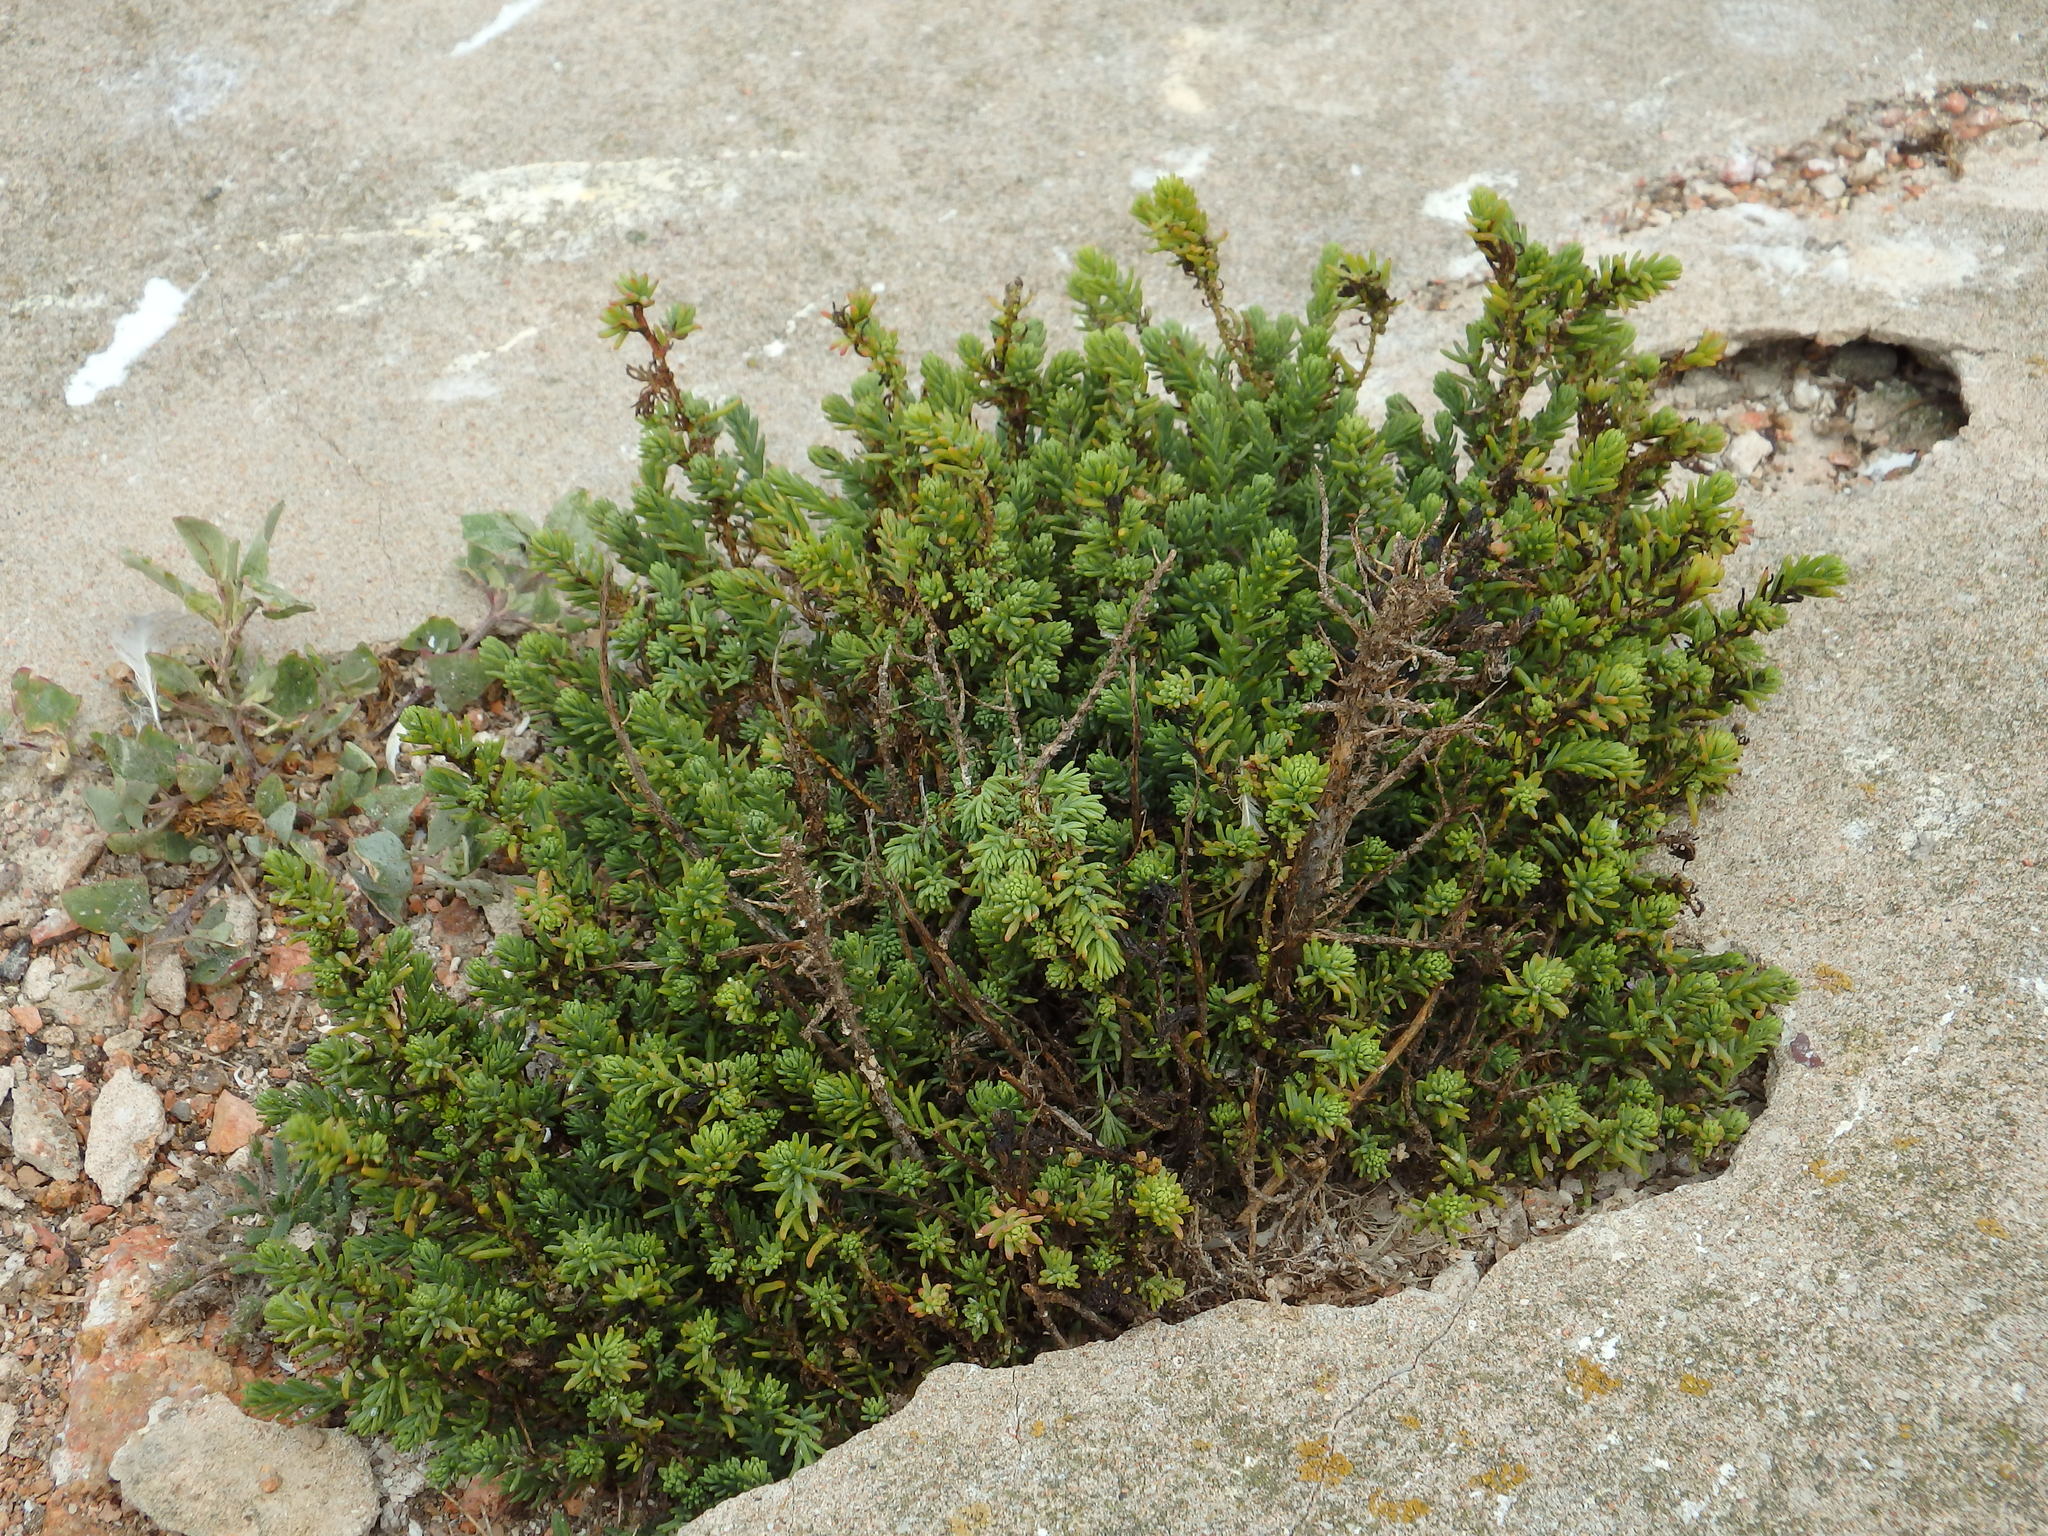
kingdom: Plantae
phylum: Tracheophyta
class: Magnoliopsida
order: Caryophyllales
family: Amaranthaceae
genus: Suaeda
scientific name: Suaeda vera
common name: Shrubby sea-blite
